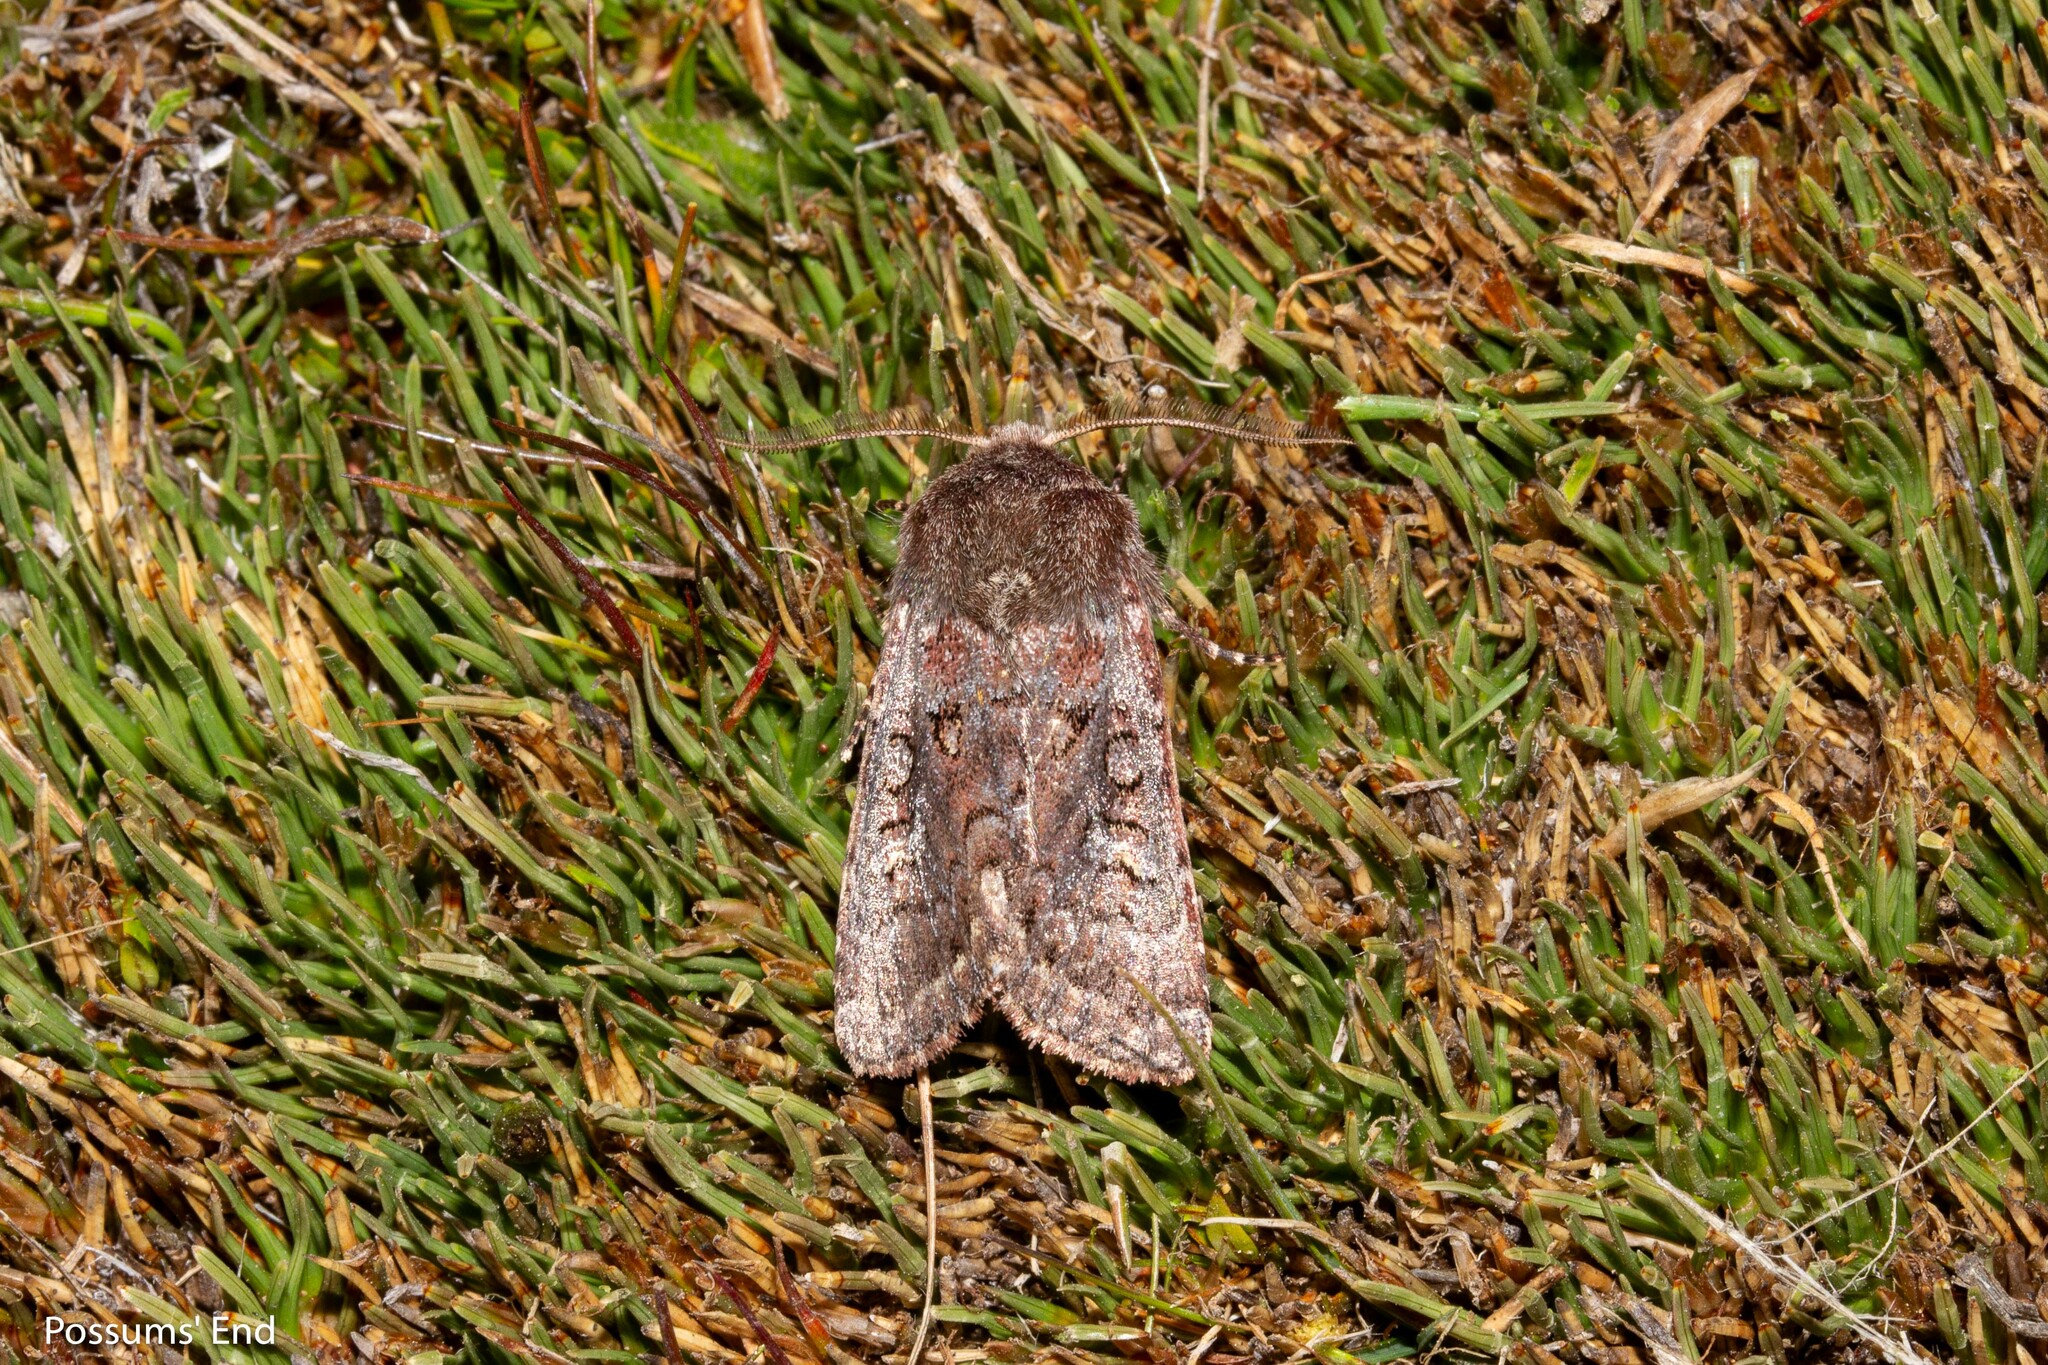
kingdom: Animalia
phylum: Arthropoda
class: Insecta
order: Lepidoptera
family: Noctuidae
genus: Ichneutica
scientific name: Ichneutica marmorata
